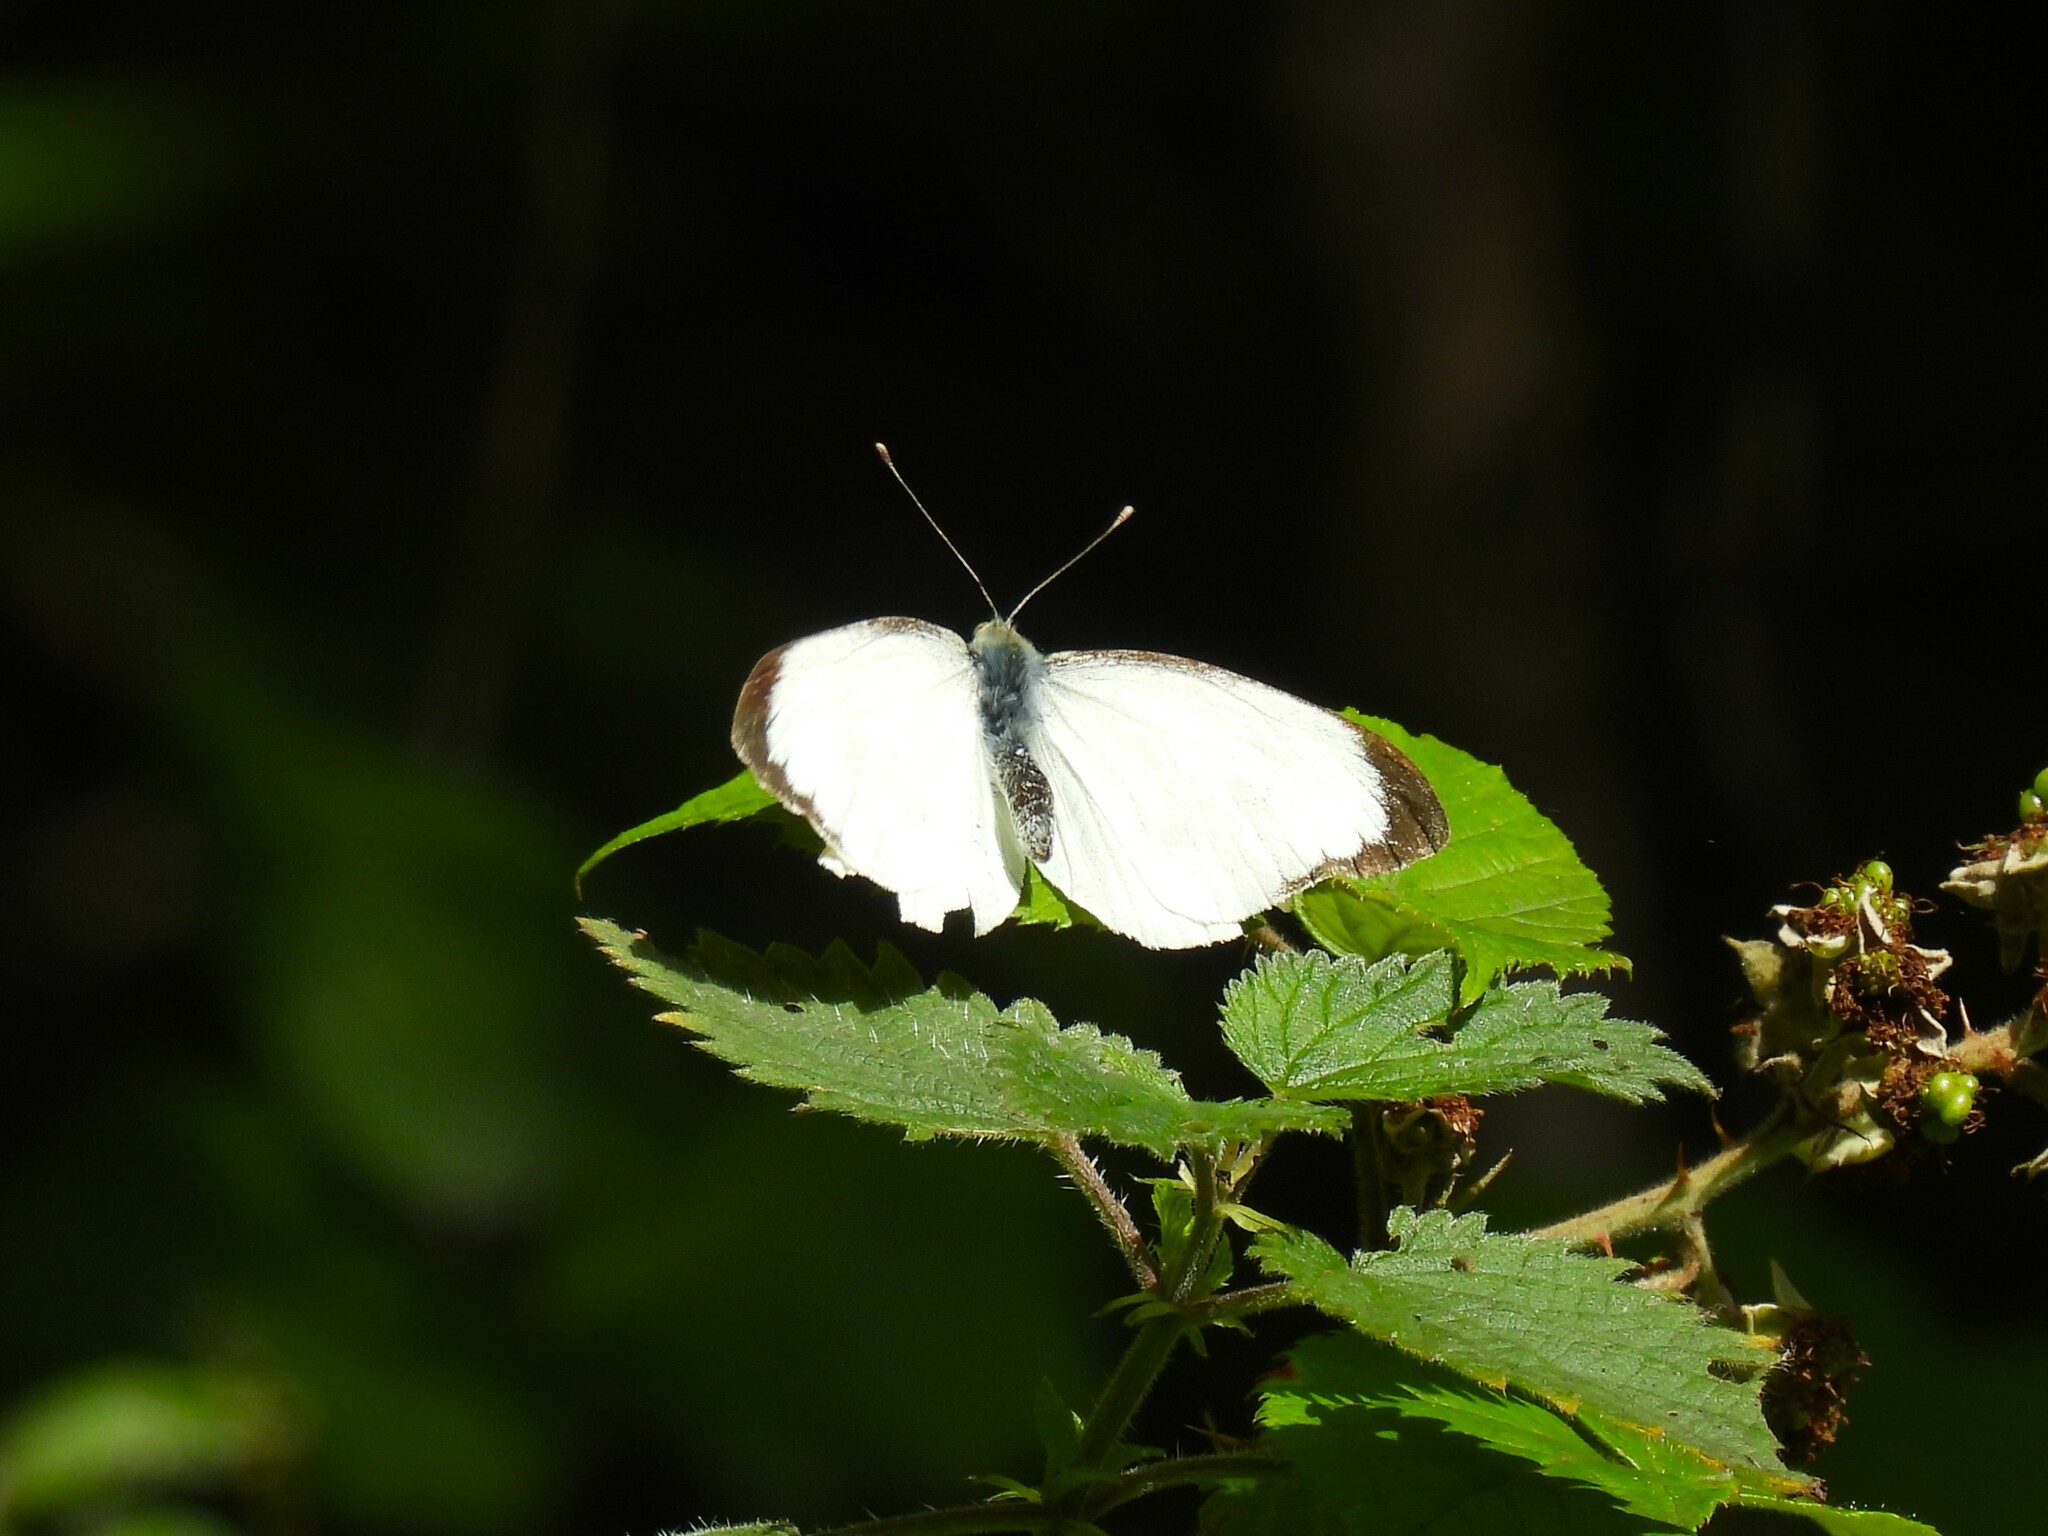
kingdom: Animalia
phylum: Arthropoda
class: Insecta
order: Lepidoptera
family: Pieridae
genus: Pieris
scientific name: Pieris brassicae
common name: Large white
